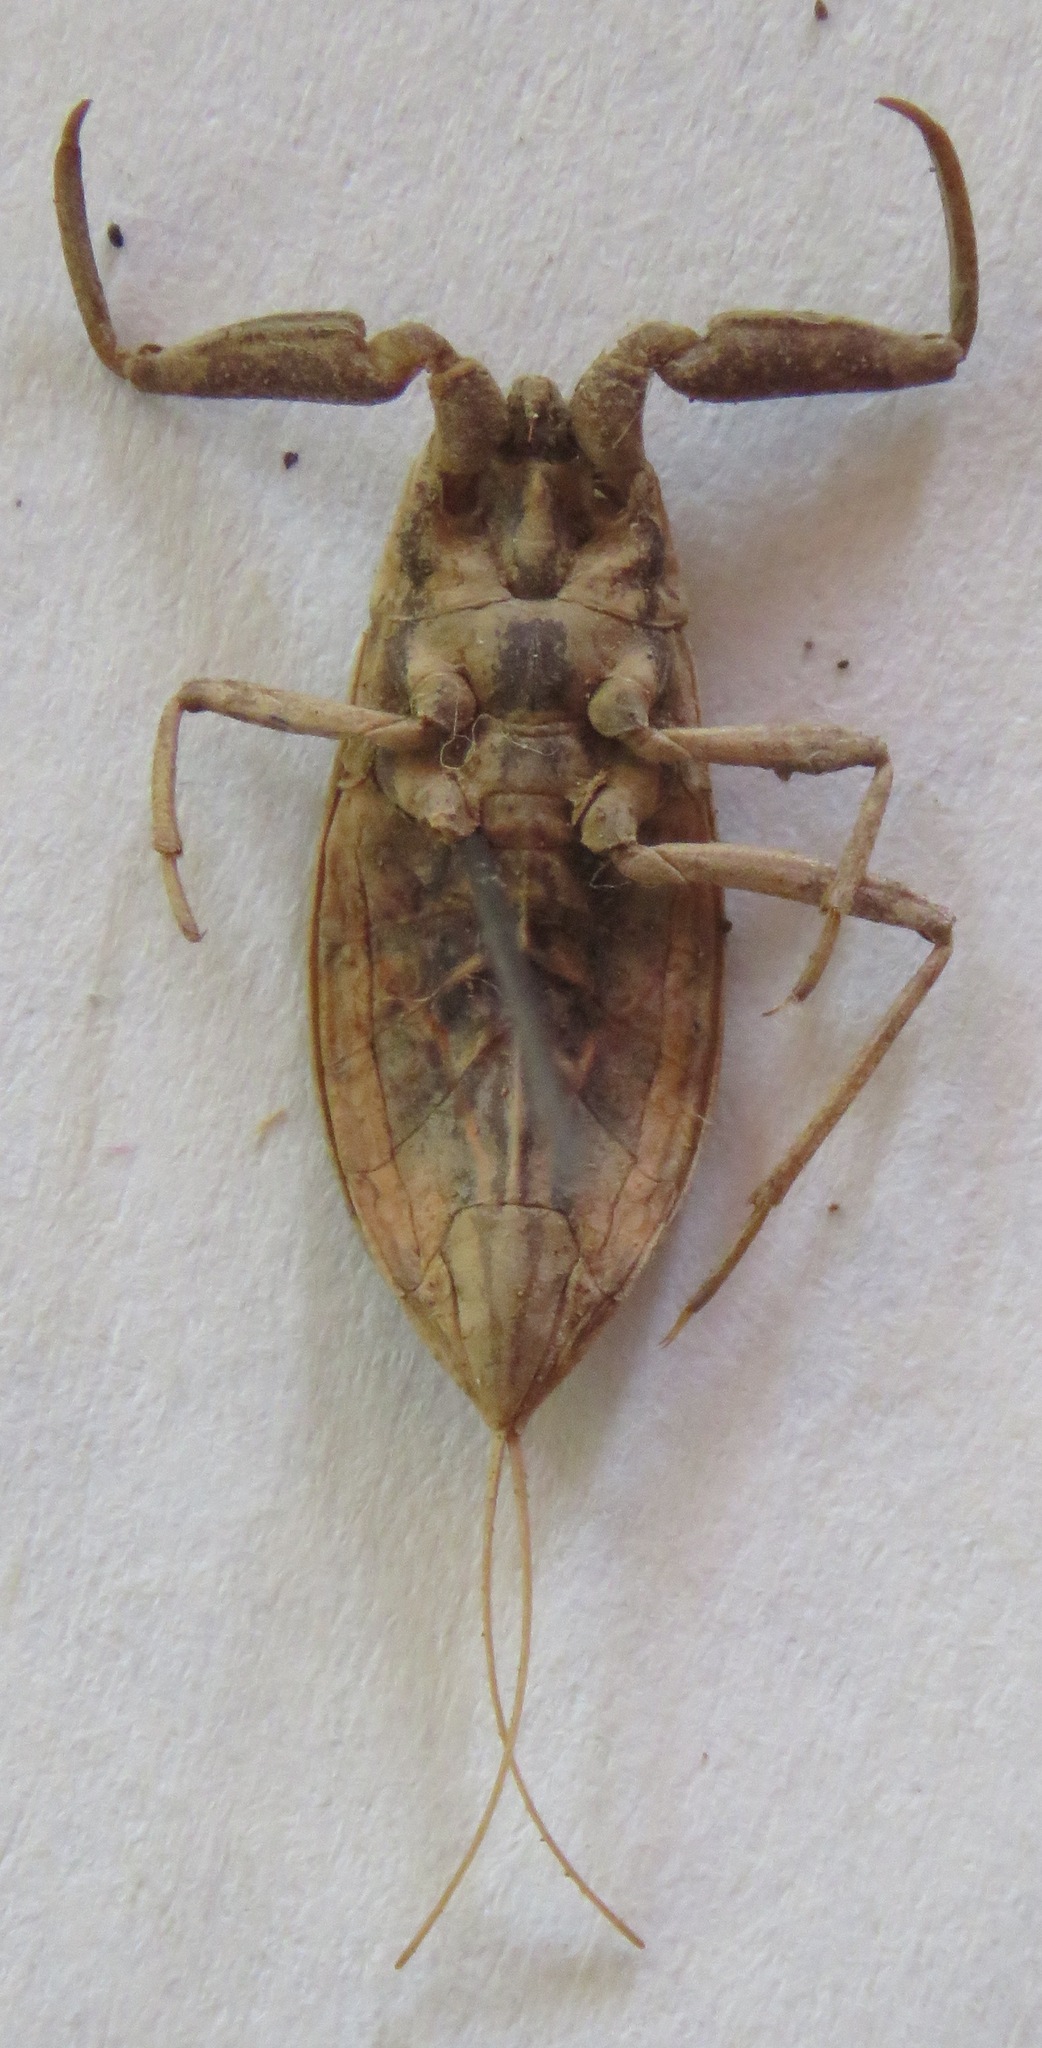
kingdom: Animalia
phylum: Arthropoda
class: Insecta
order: Hemiptera
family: Nepidae
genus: Nepa
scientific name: Nepa cinerea
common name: Water scorpion
